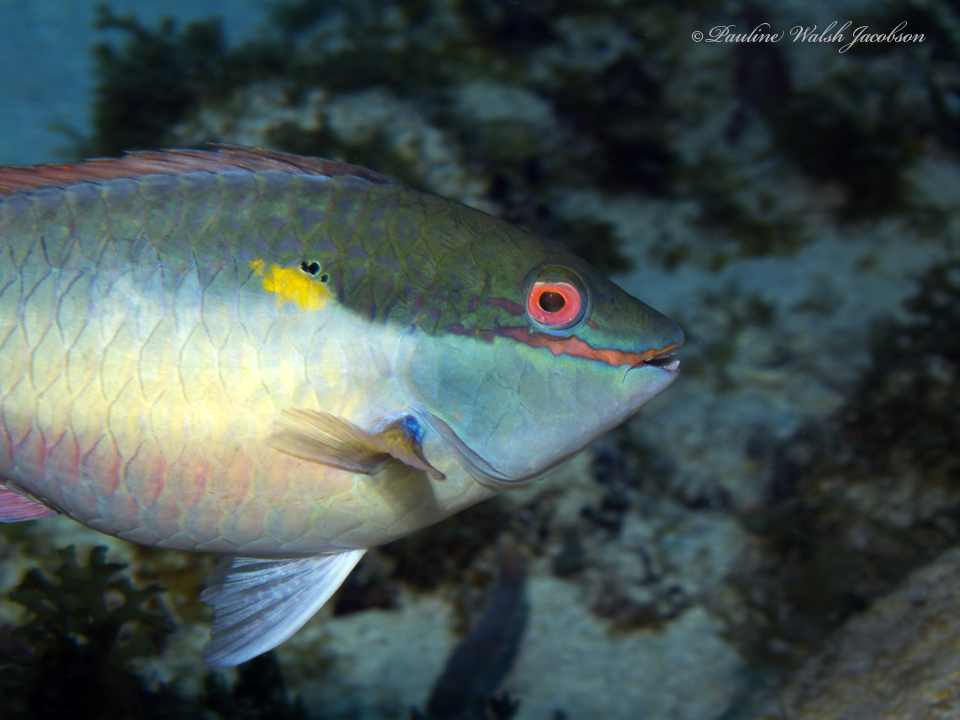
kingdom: Animalia
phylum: Chordata
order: Perciformes
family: Scaridae
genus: Sparisoma
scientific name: Sparisoma aurofrenatum
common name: Redband parrotfish
